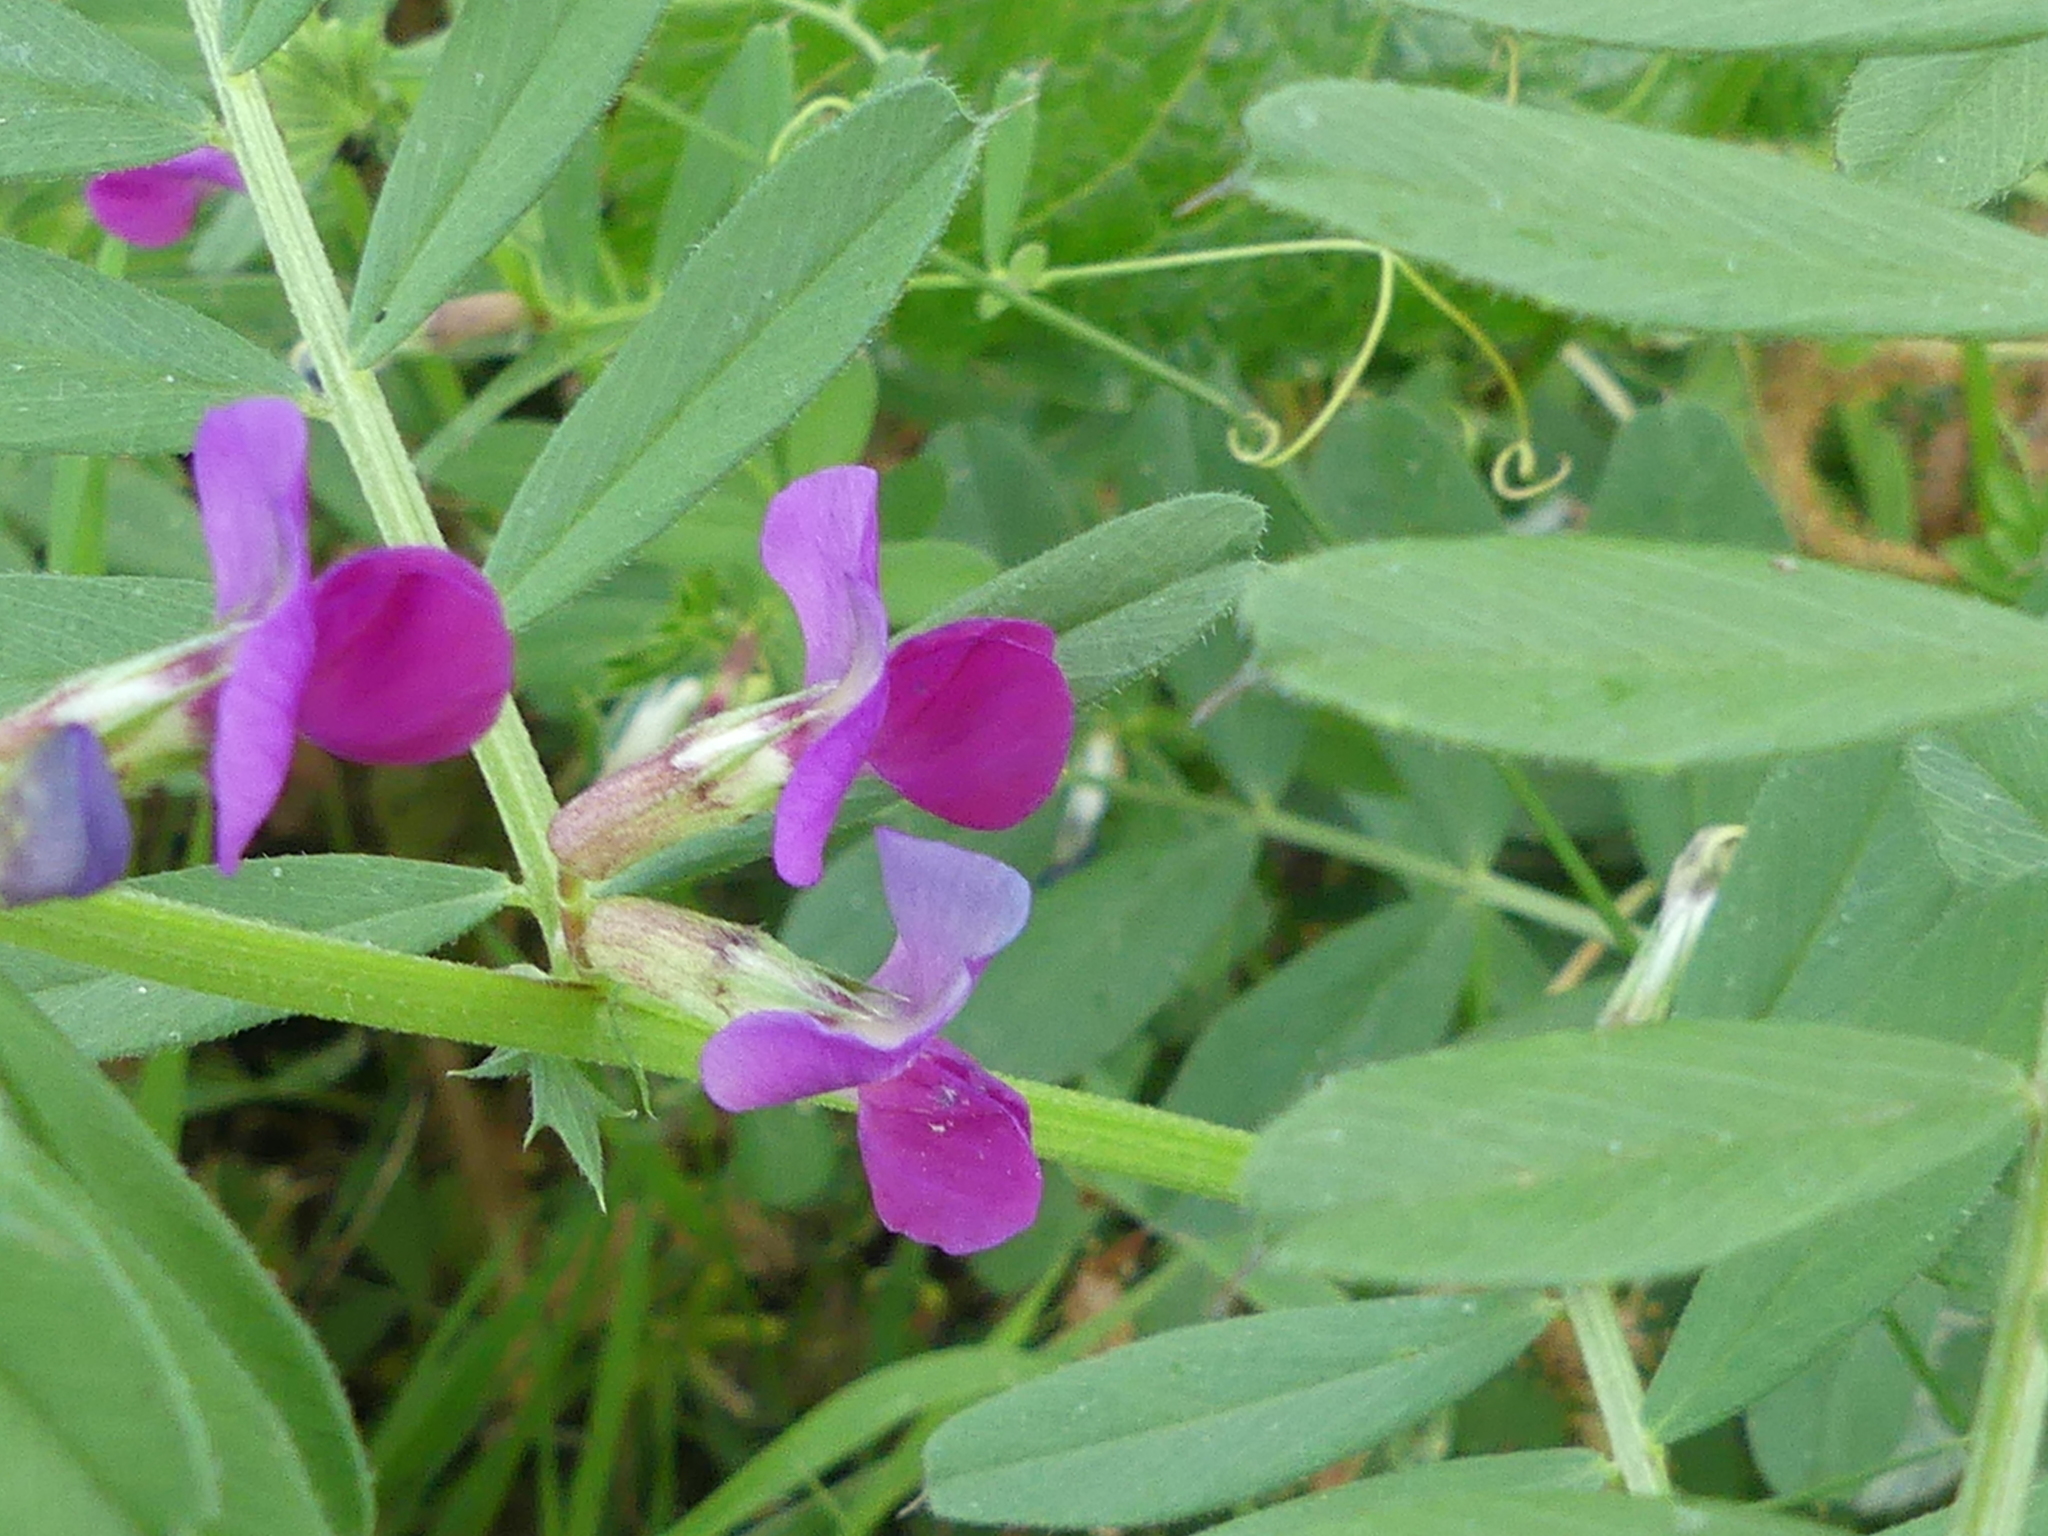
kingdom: Plantae
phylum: Tracheophyta
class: Magnoliopsida
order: Fabales
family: Fabaceae
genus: Vicia
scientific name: Vicia sativa
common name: Garden vetch
